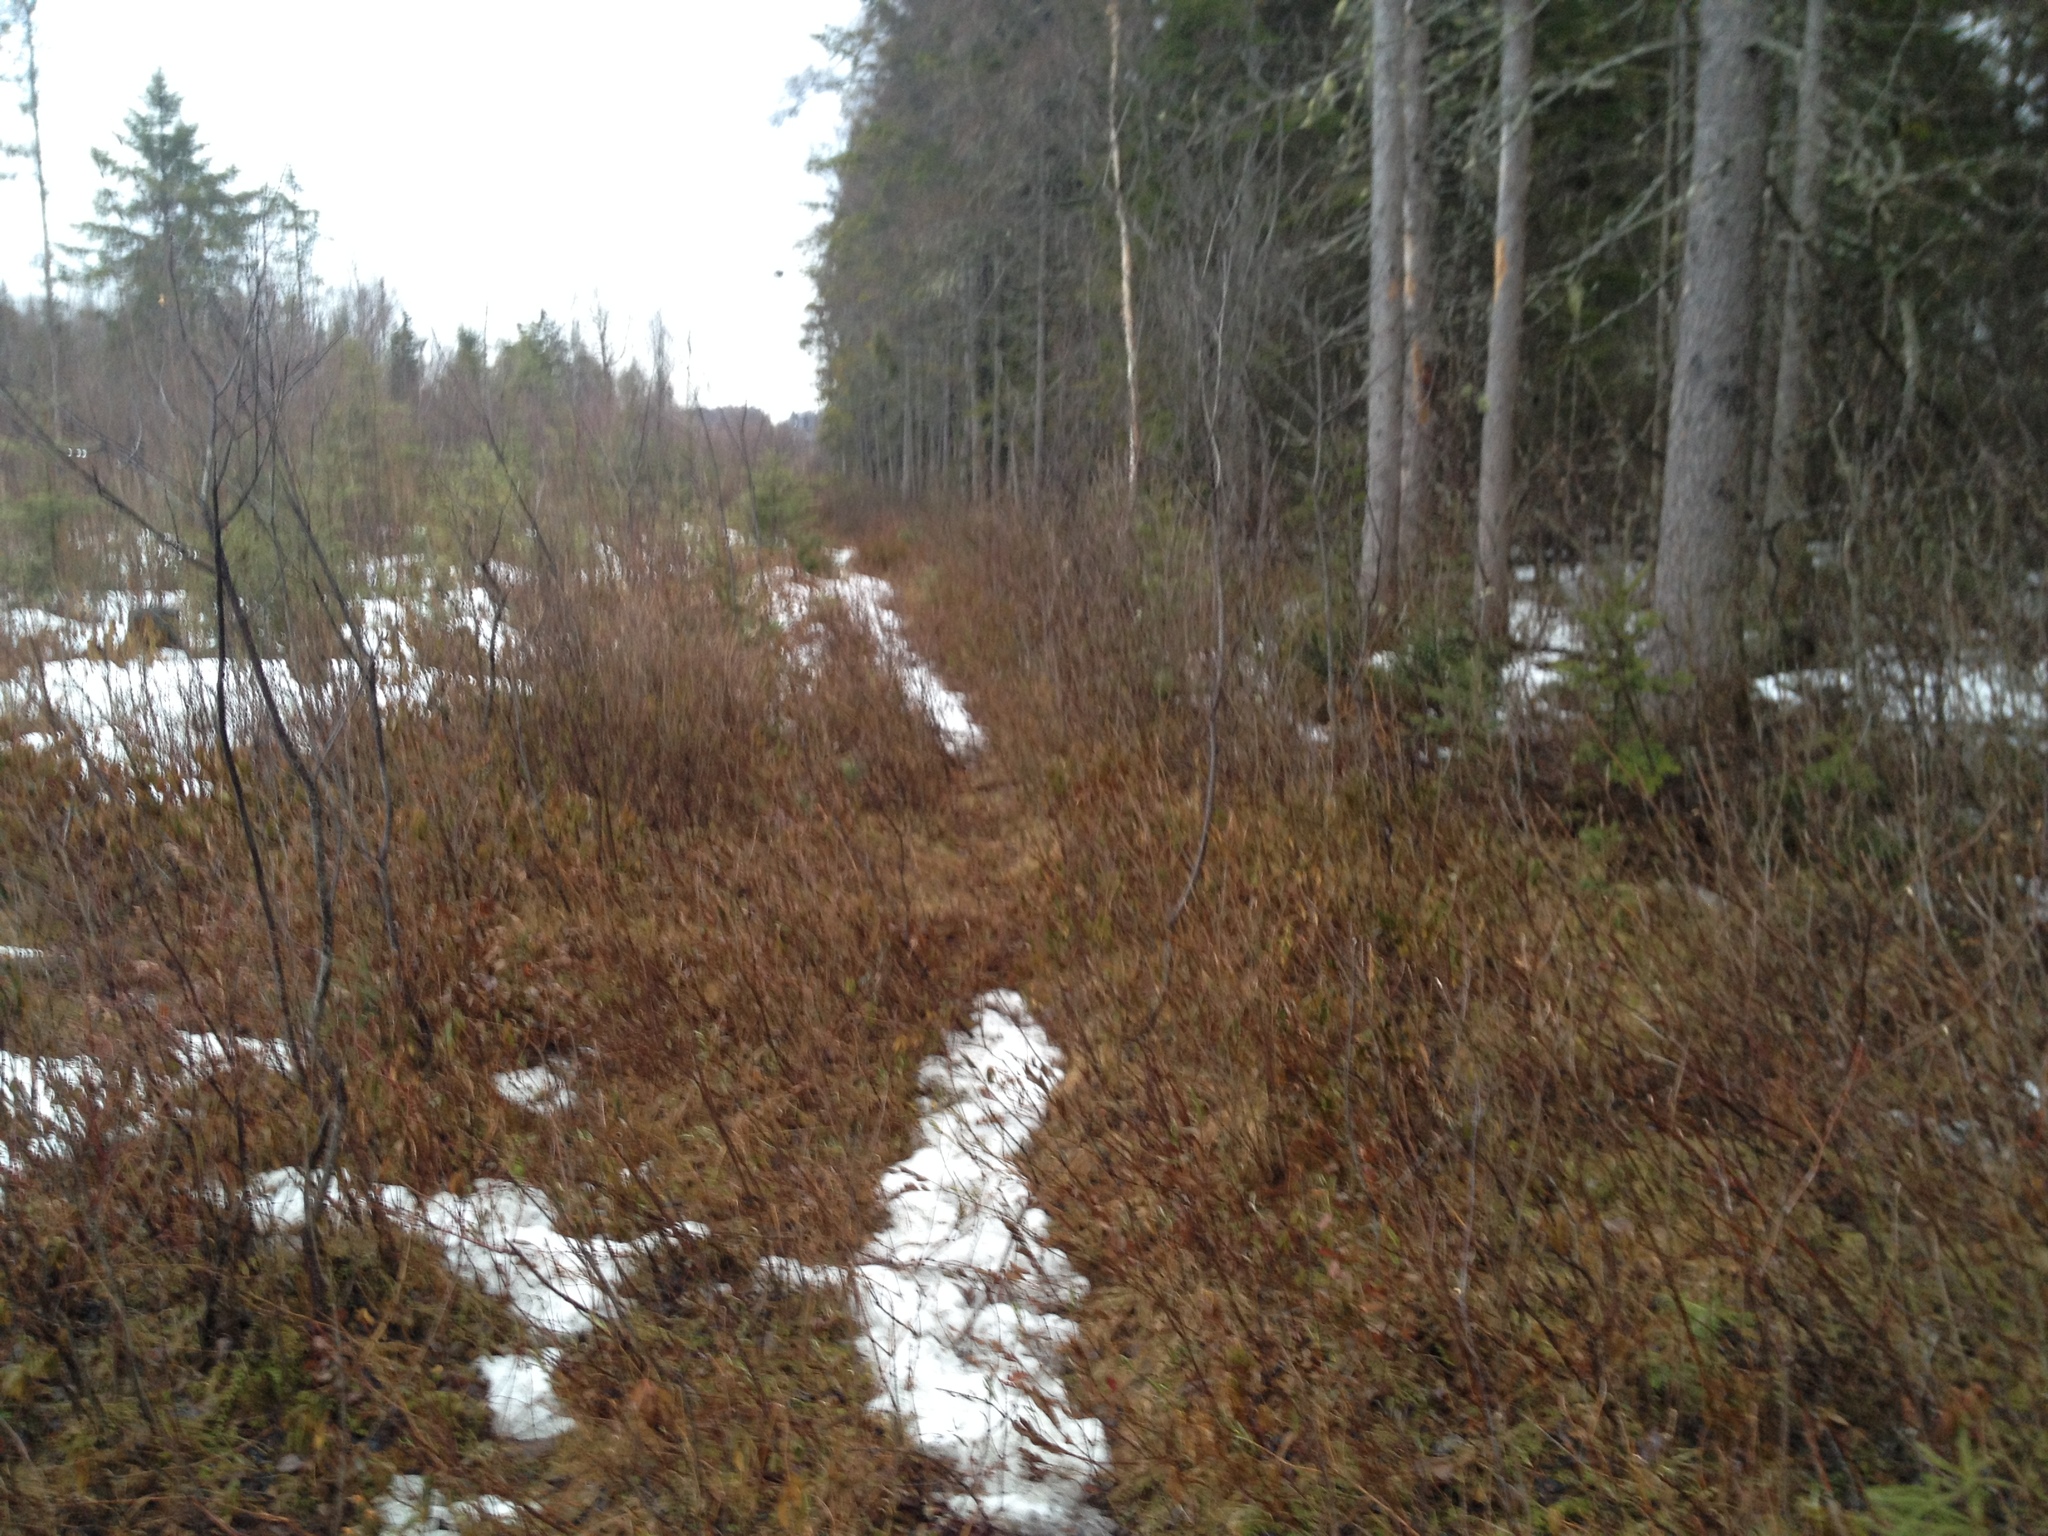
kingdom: Plantae
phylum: Tracheophyta
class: Magnoliopsida
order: Ericales
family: Sarraceniaceae
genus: Sarracenia
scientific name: Sarracenia purpurea
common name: Pitcherplant
